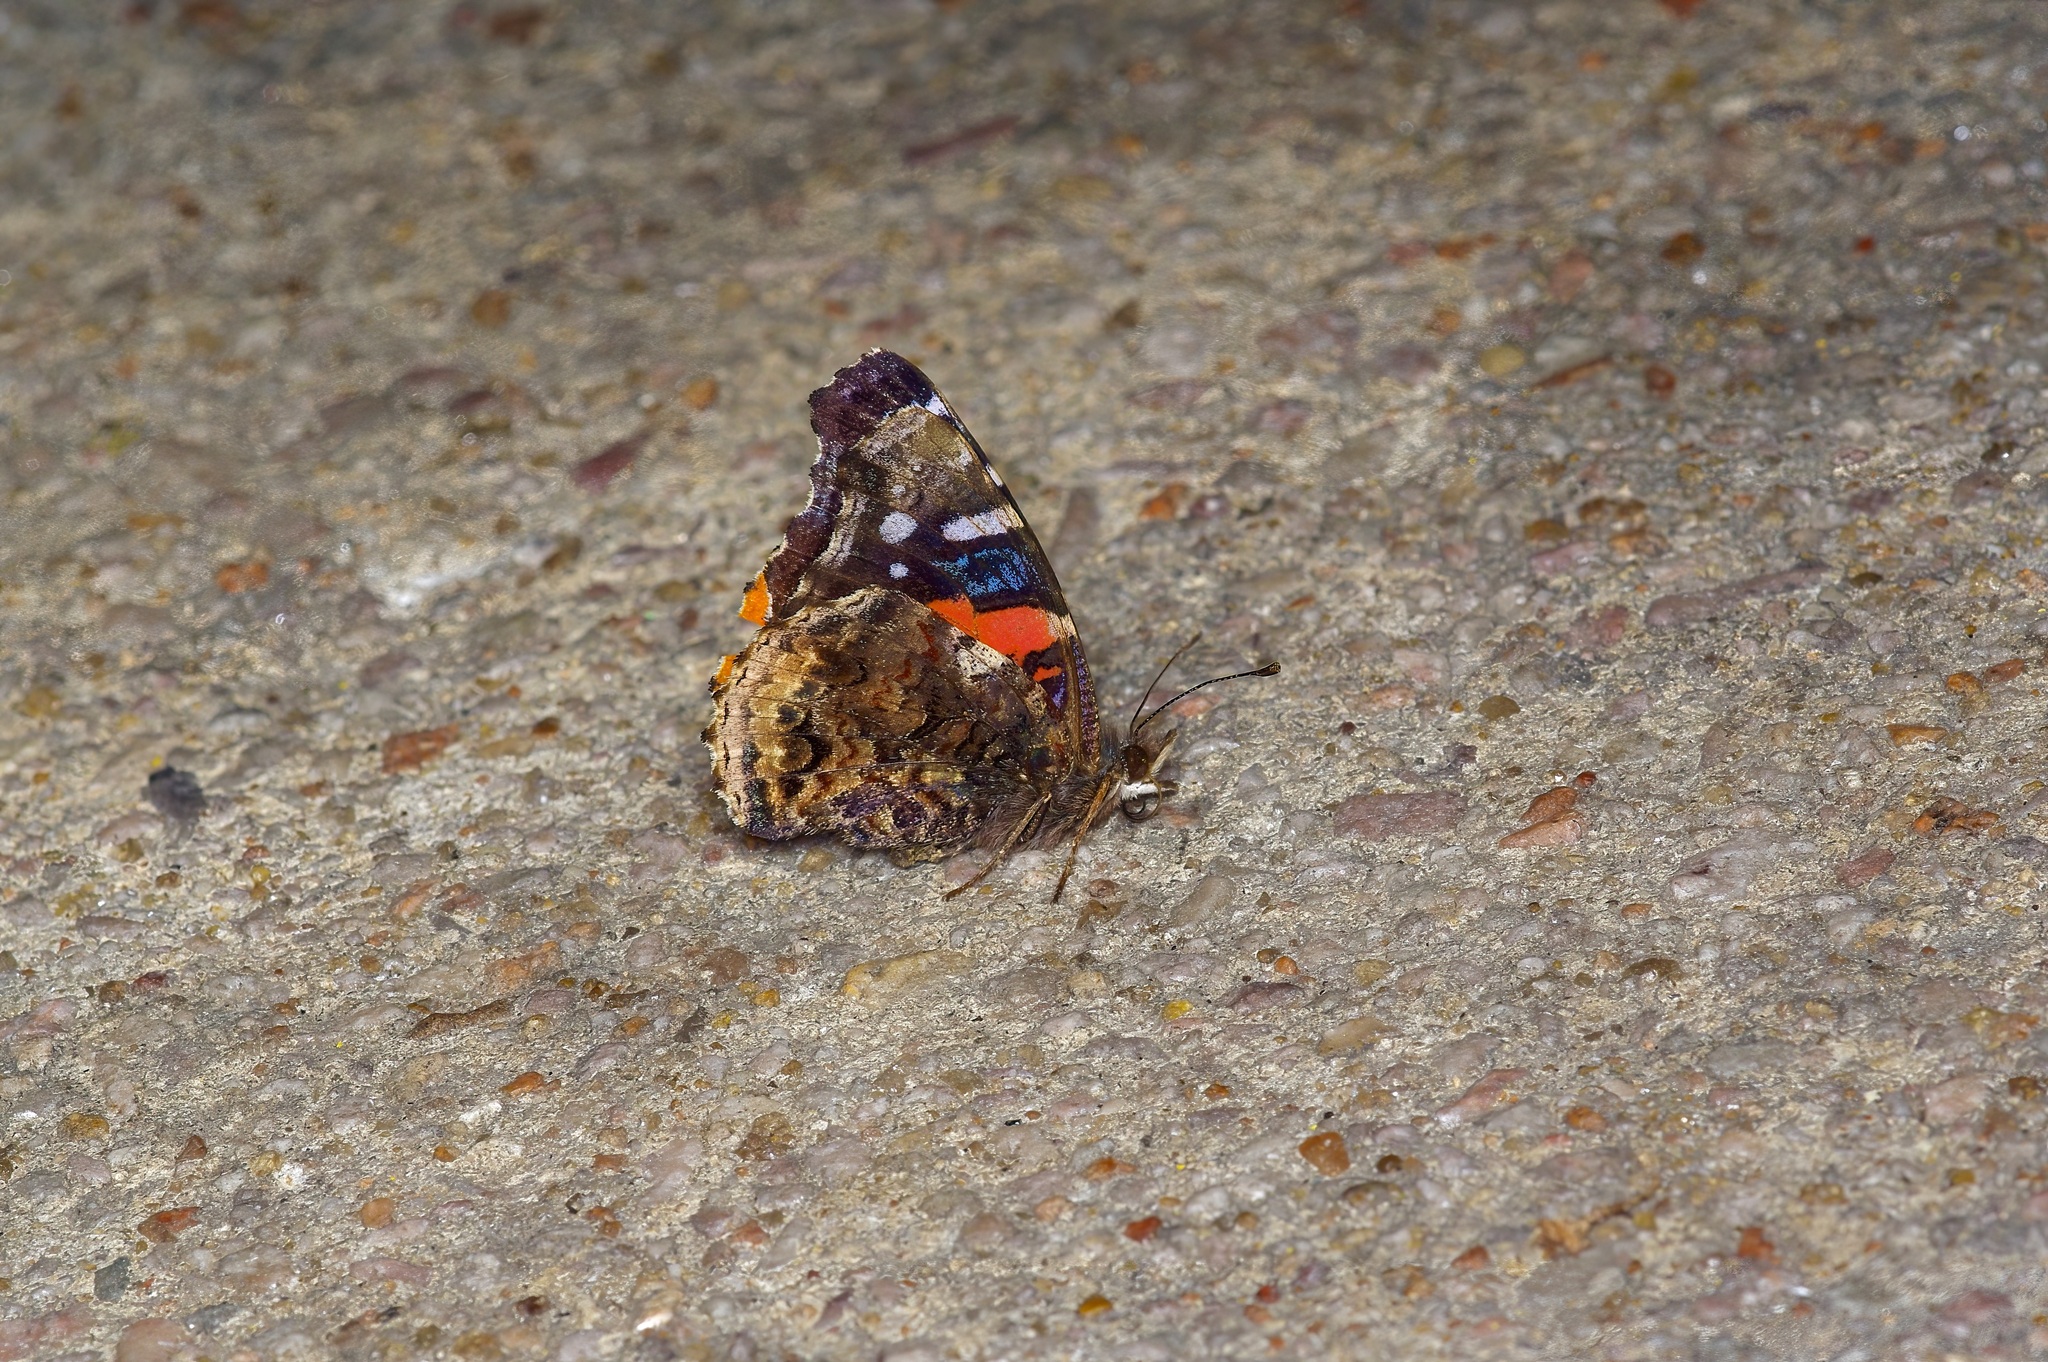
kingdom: Animalia
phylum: Arthropoda
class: Insecta
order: Lepidoptera
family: Nymphalidae
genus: Vanessa
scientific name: Vanessa atalanta
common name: Red admiral
